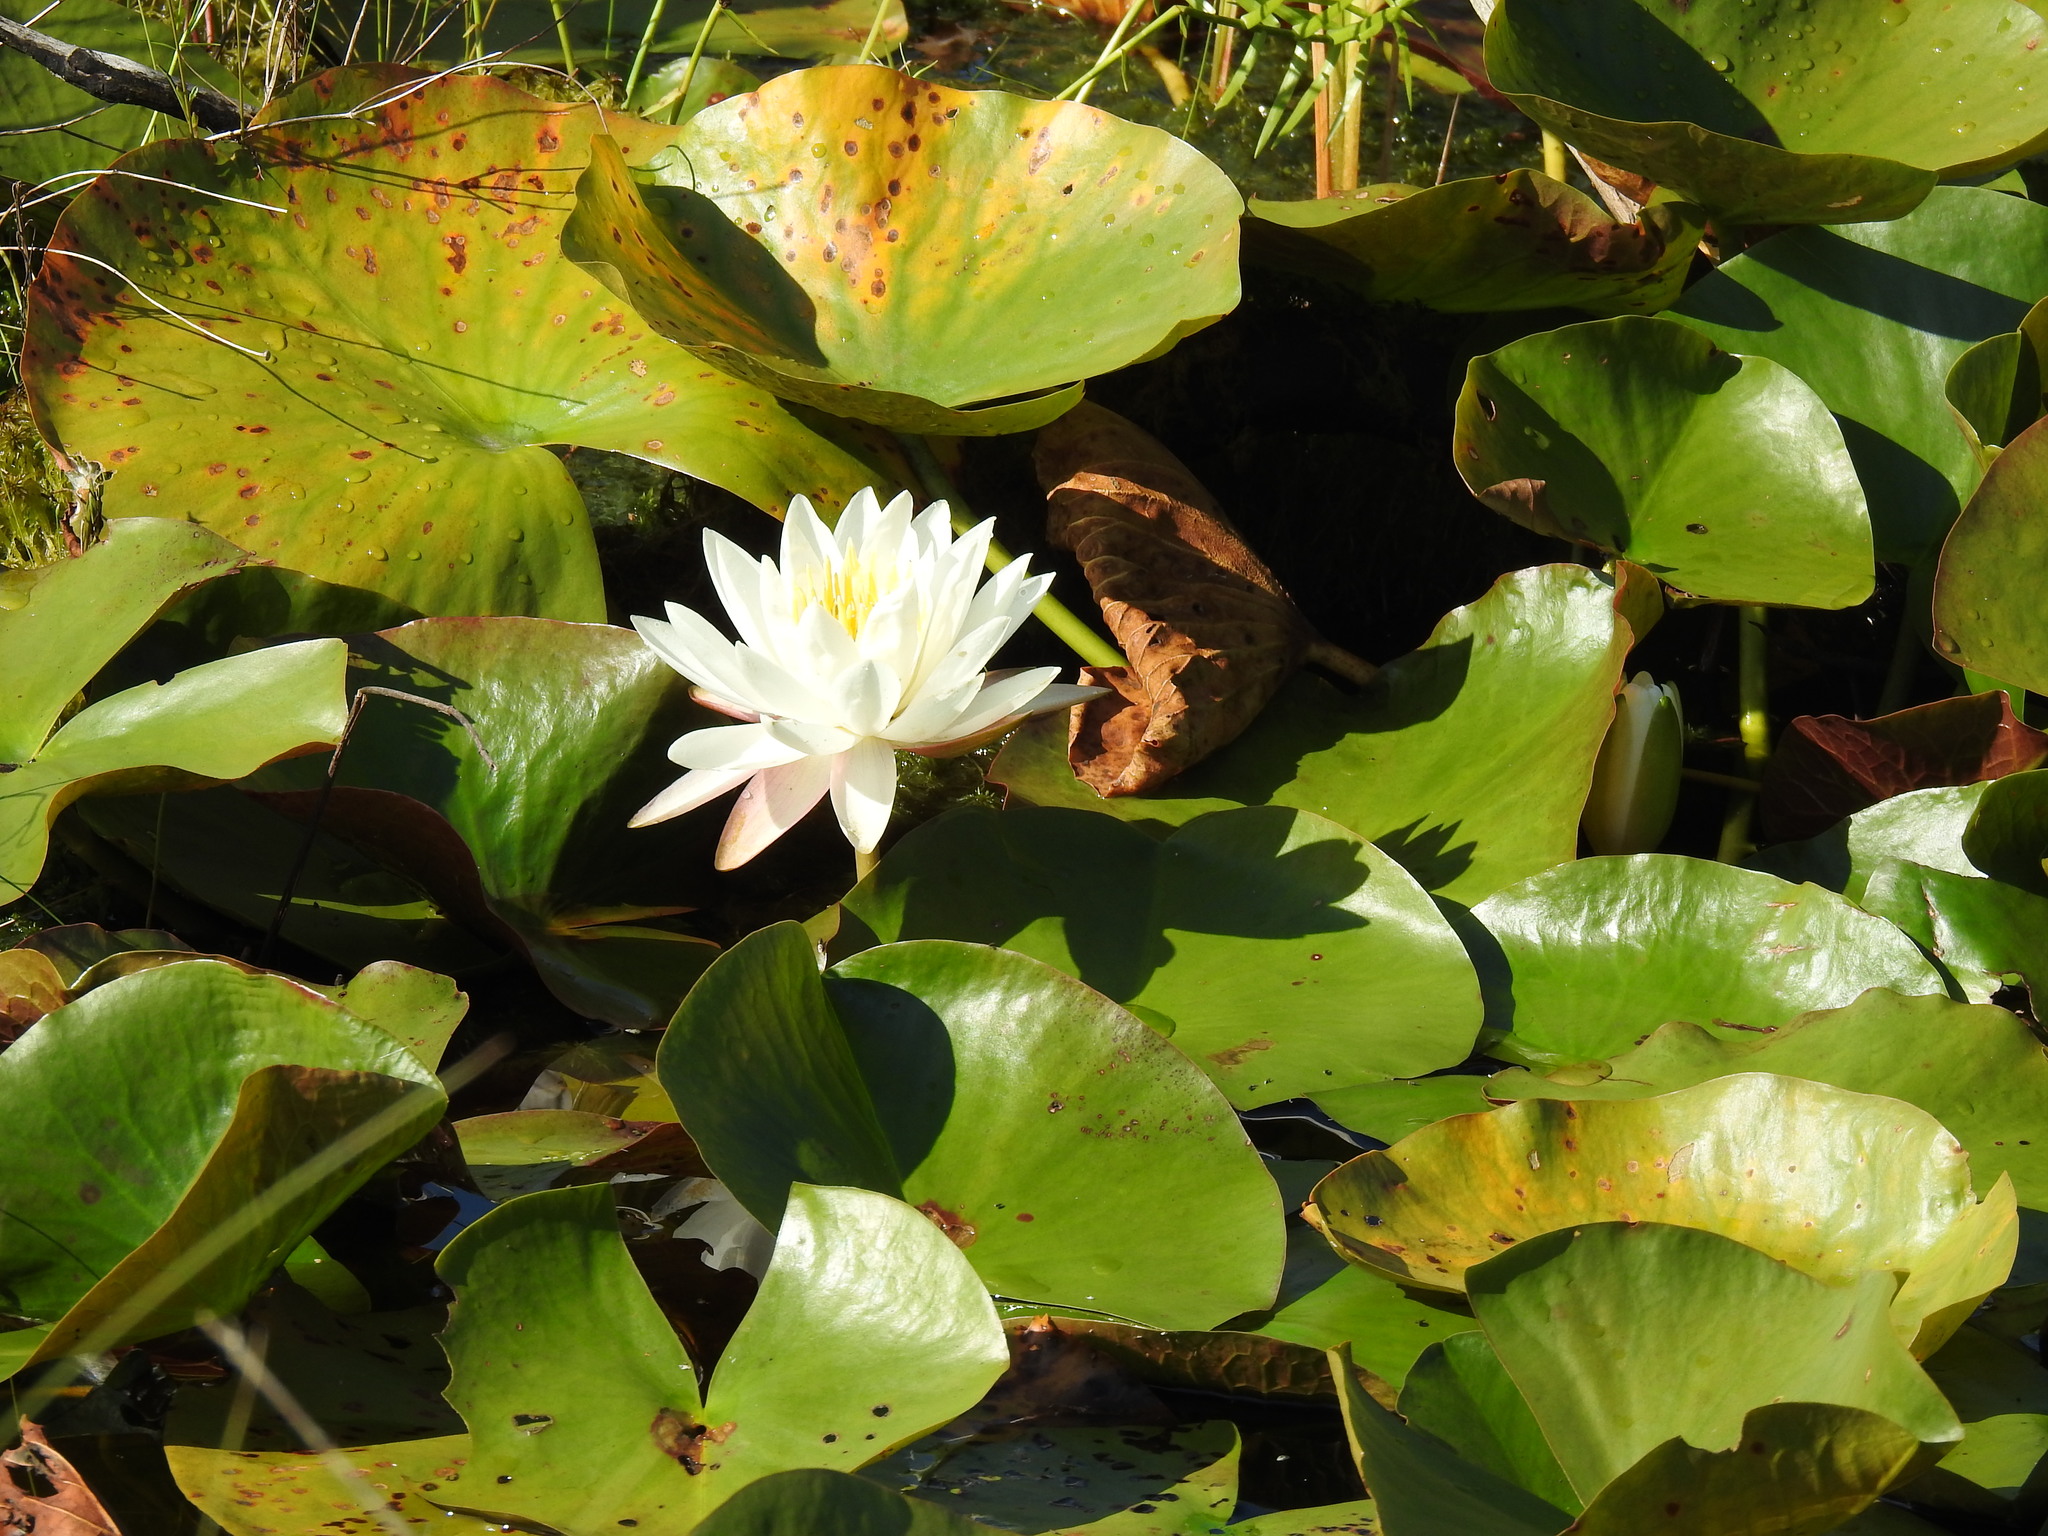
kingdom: Plantae
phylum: Tracheophyta
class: Magnoliopsida
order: Nymphaeales
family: Nymphaeaceae
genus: Nymphaea
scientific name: Nymphaea odorata
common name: Fragrant water-lily
